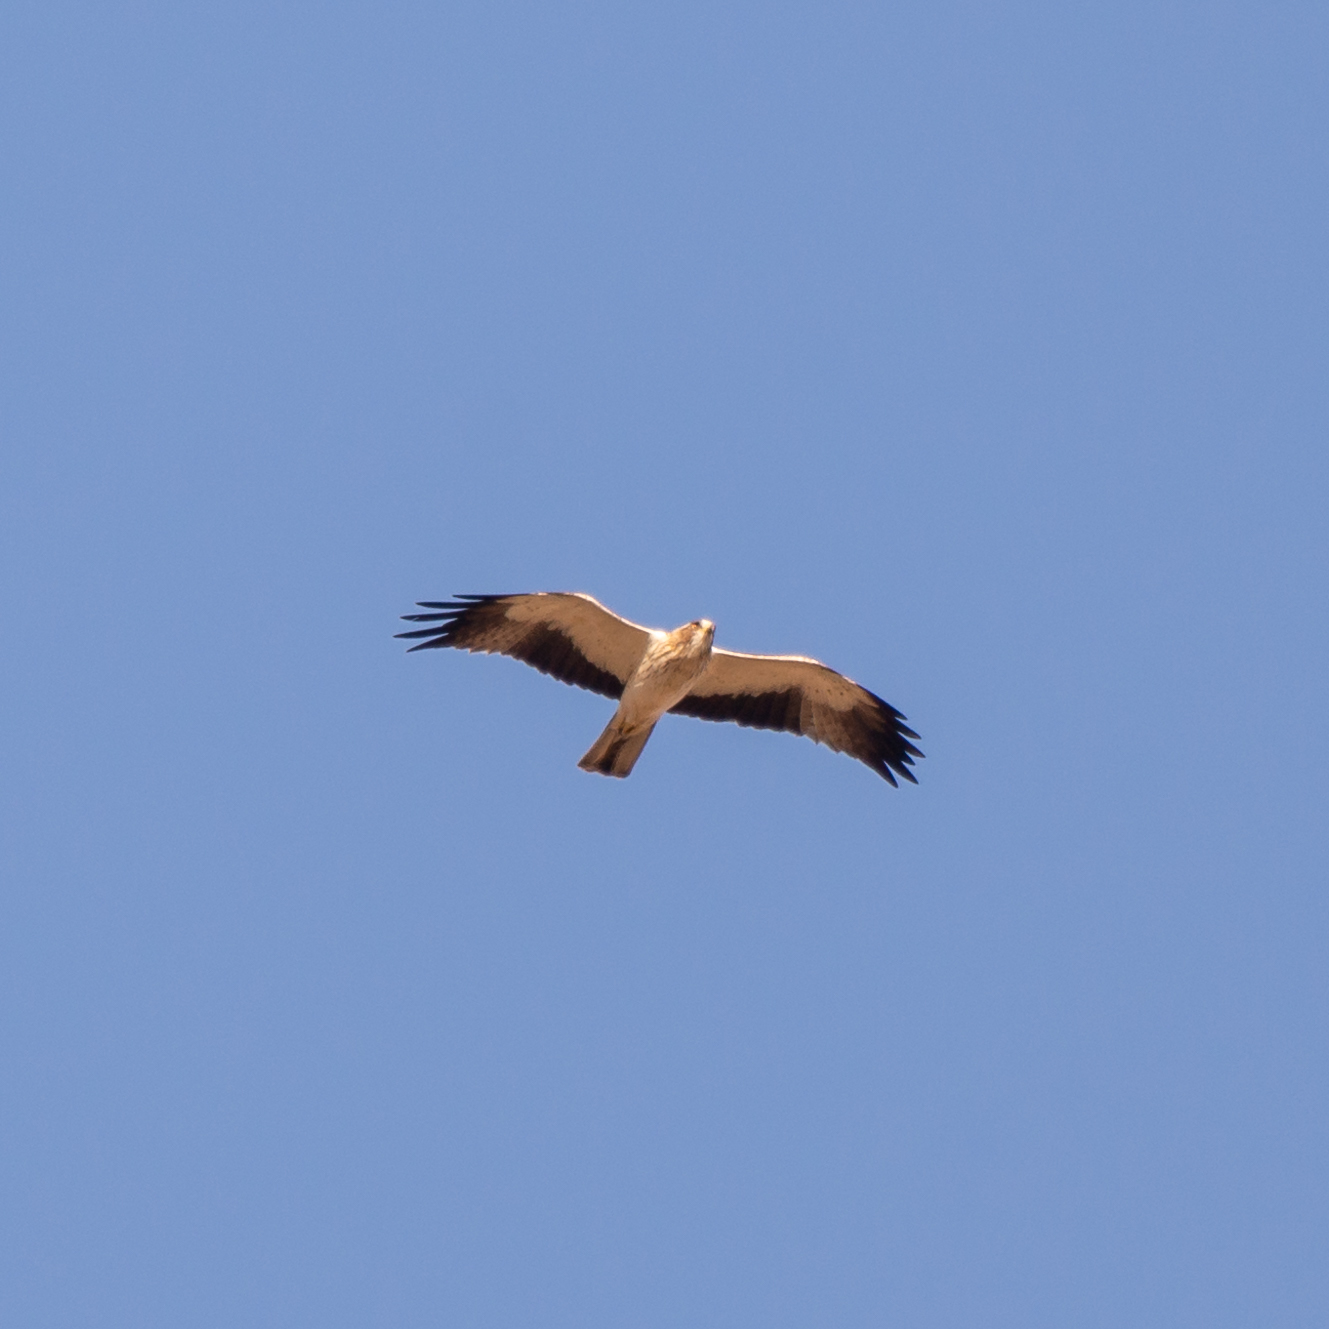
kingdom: Animalia
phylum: Chordata
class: Aves
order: Accipitriformes
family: Accipitridae
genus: Hieraaetus
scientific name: Hieraaetus pennatus
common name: Booted eagle
